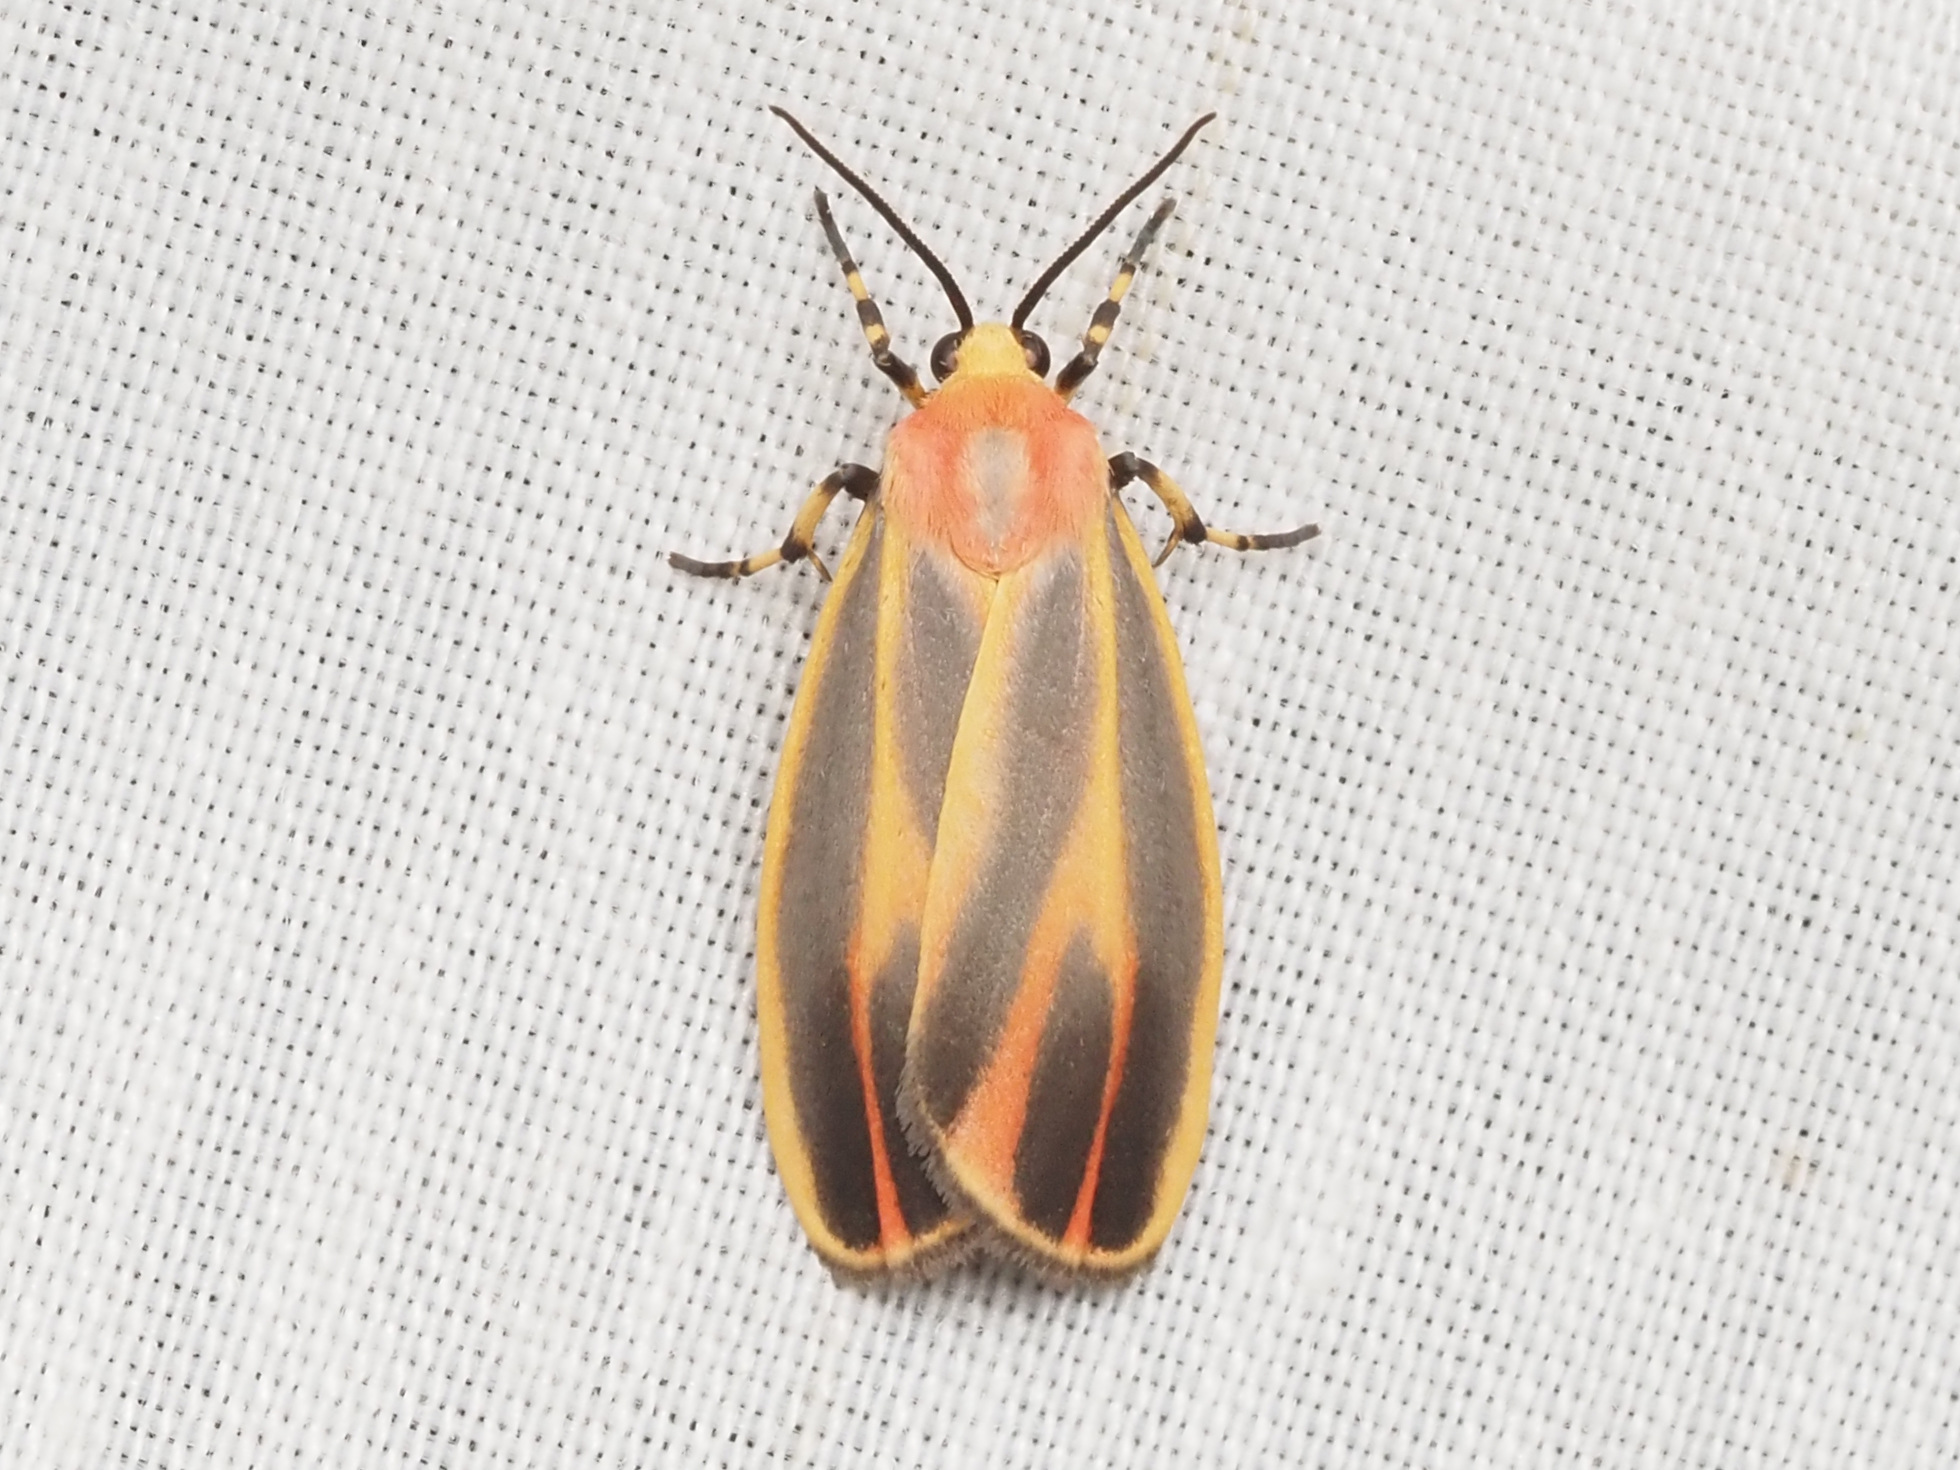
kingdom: Animalia
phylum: Arthropoda
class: Insecta
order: Lepidoptera
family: Erebidae
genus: Hypoprepia
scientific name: Hypoprepia fucosa
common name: Painted lichen moth
